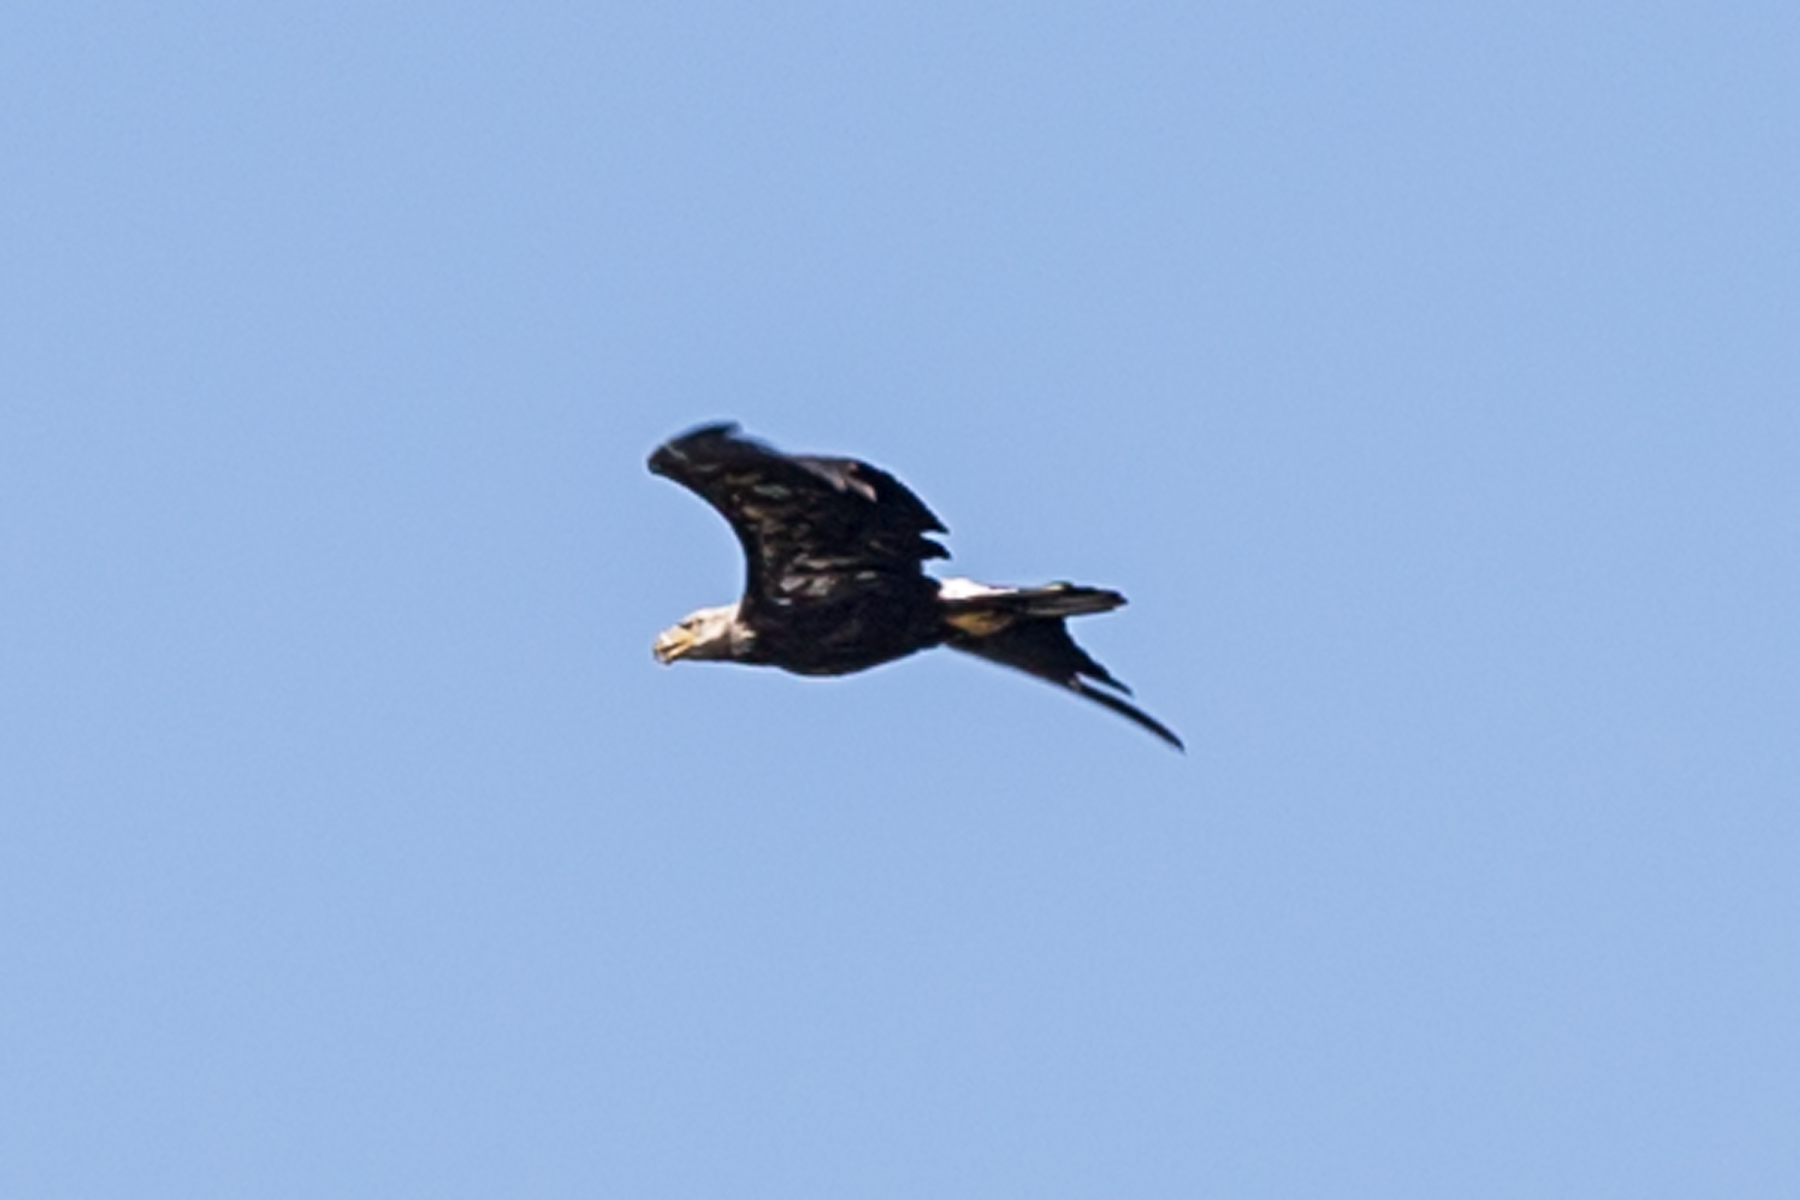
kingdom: Animalia
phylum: Chordata
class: Aves
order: Accipitriformes
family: Accipitridae
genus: Haliaeetus
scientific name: Haliaeetus leucocephalus
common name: Bald eagle
